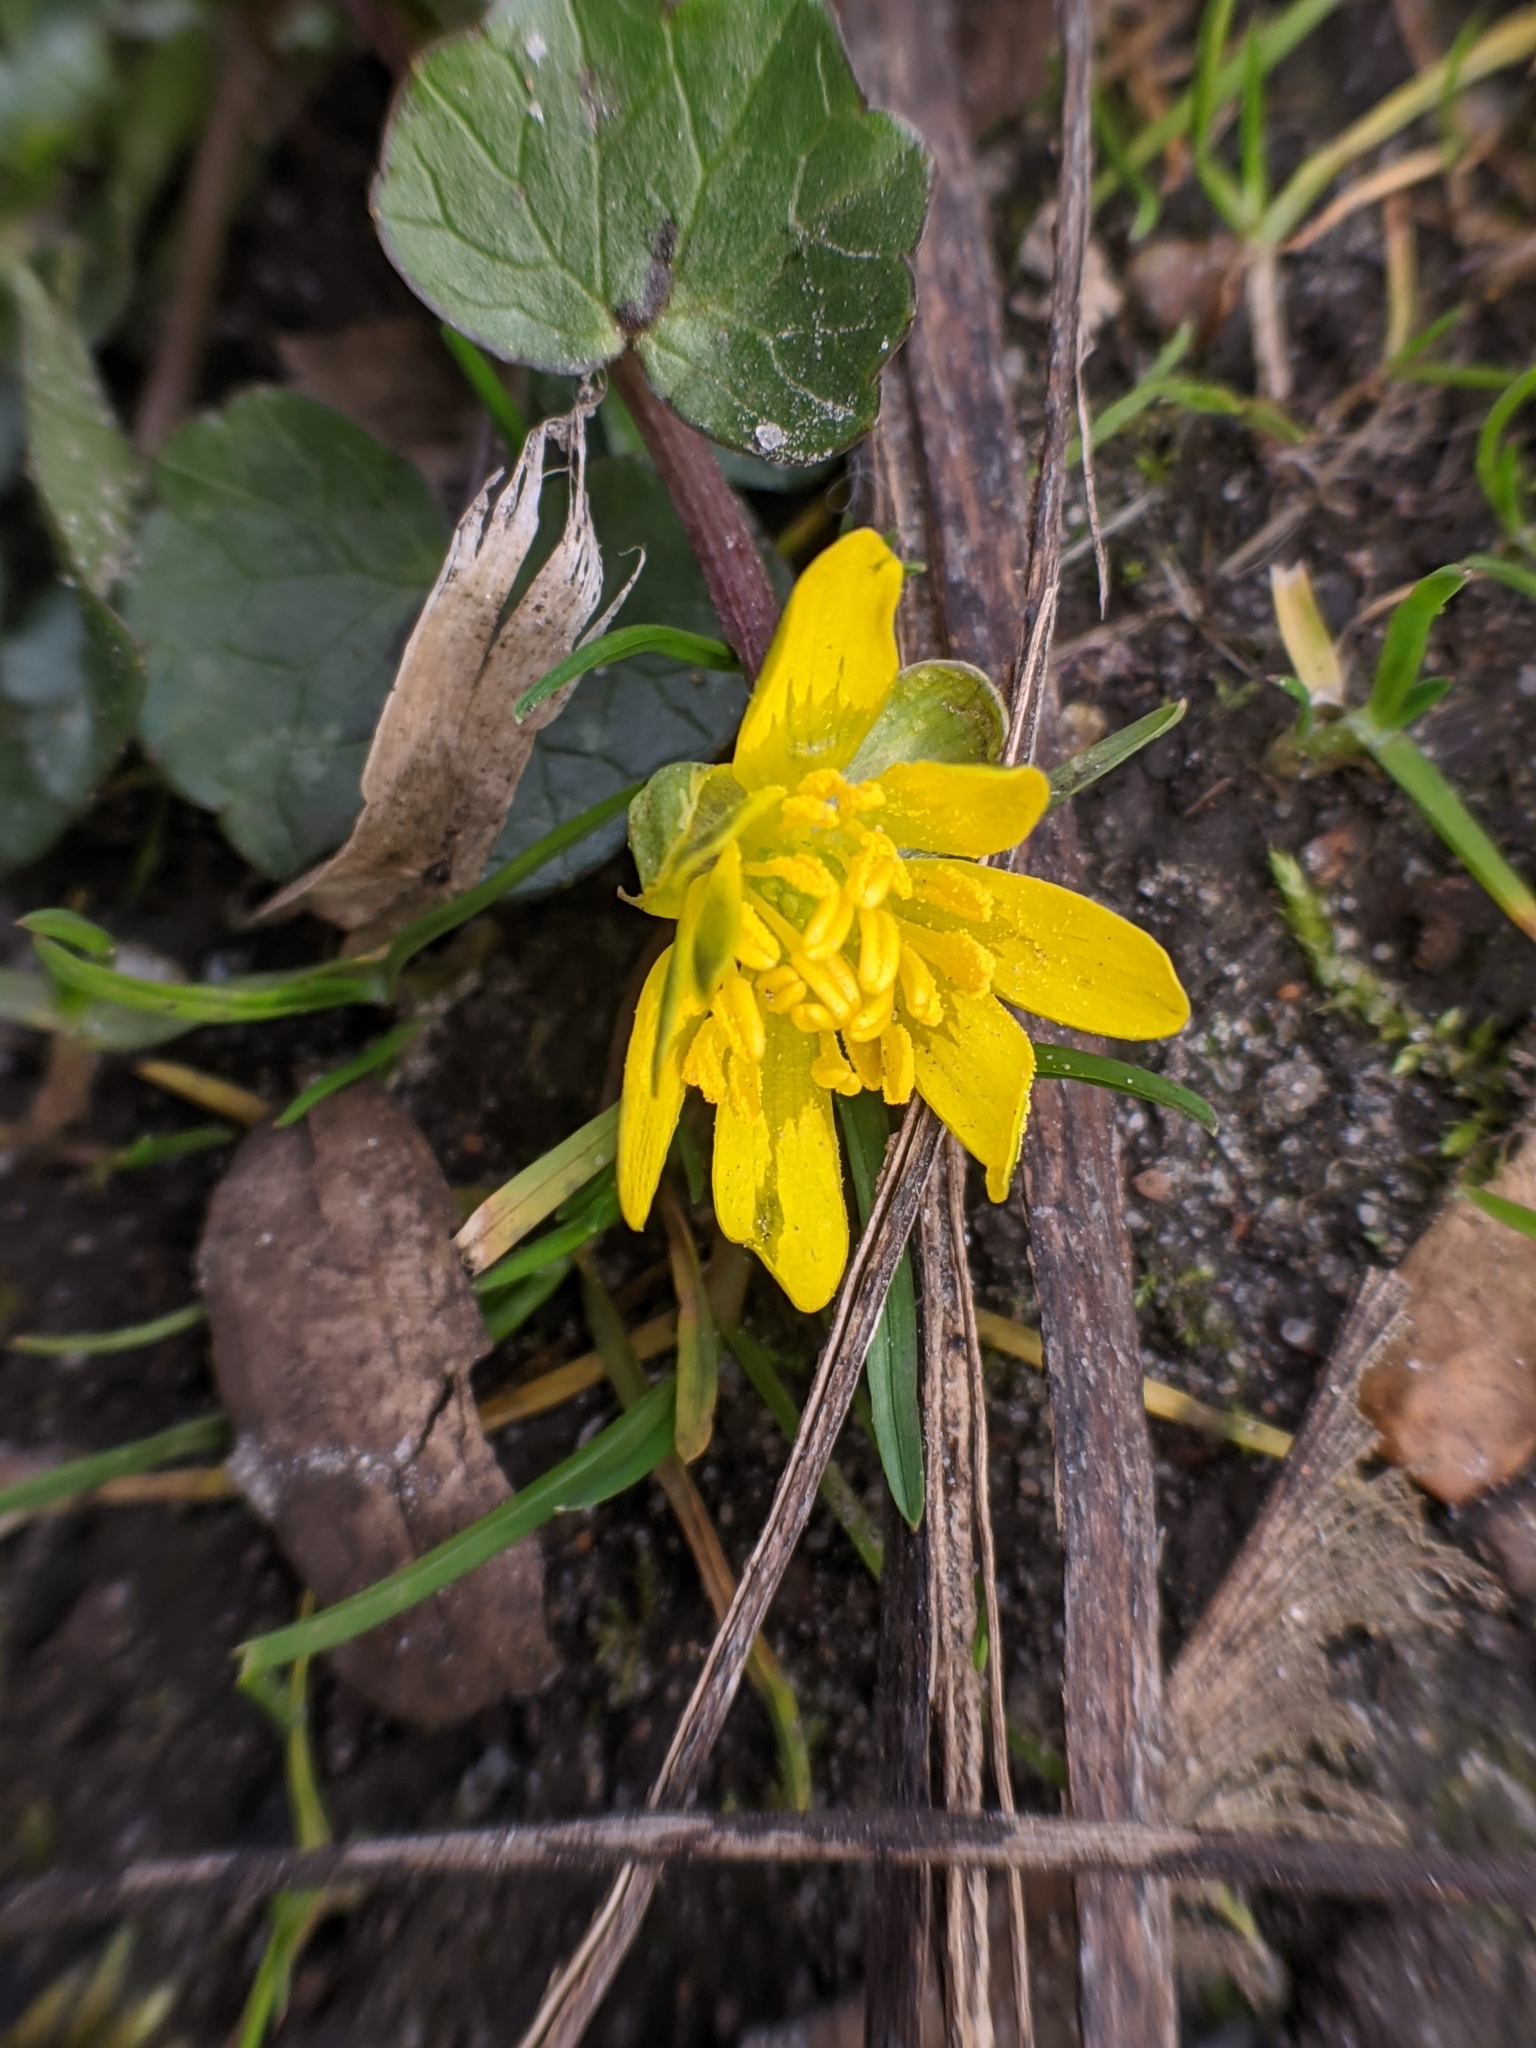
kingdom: Plantae
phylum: Tracheophyta
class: Magnoliopsida
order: Ranunculales
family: Ranunculaceae
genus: Ficaria
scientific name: Ficaria verna
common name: Lesser celandine
